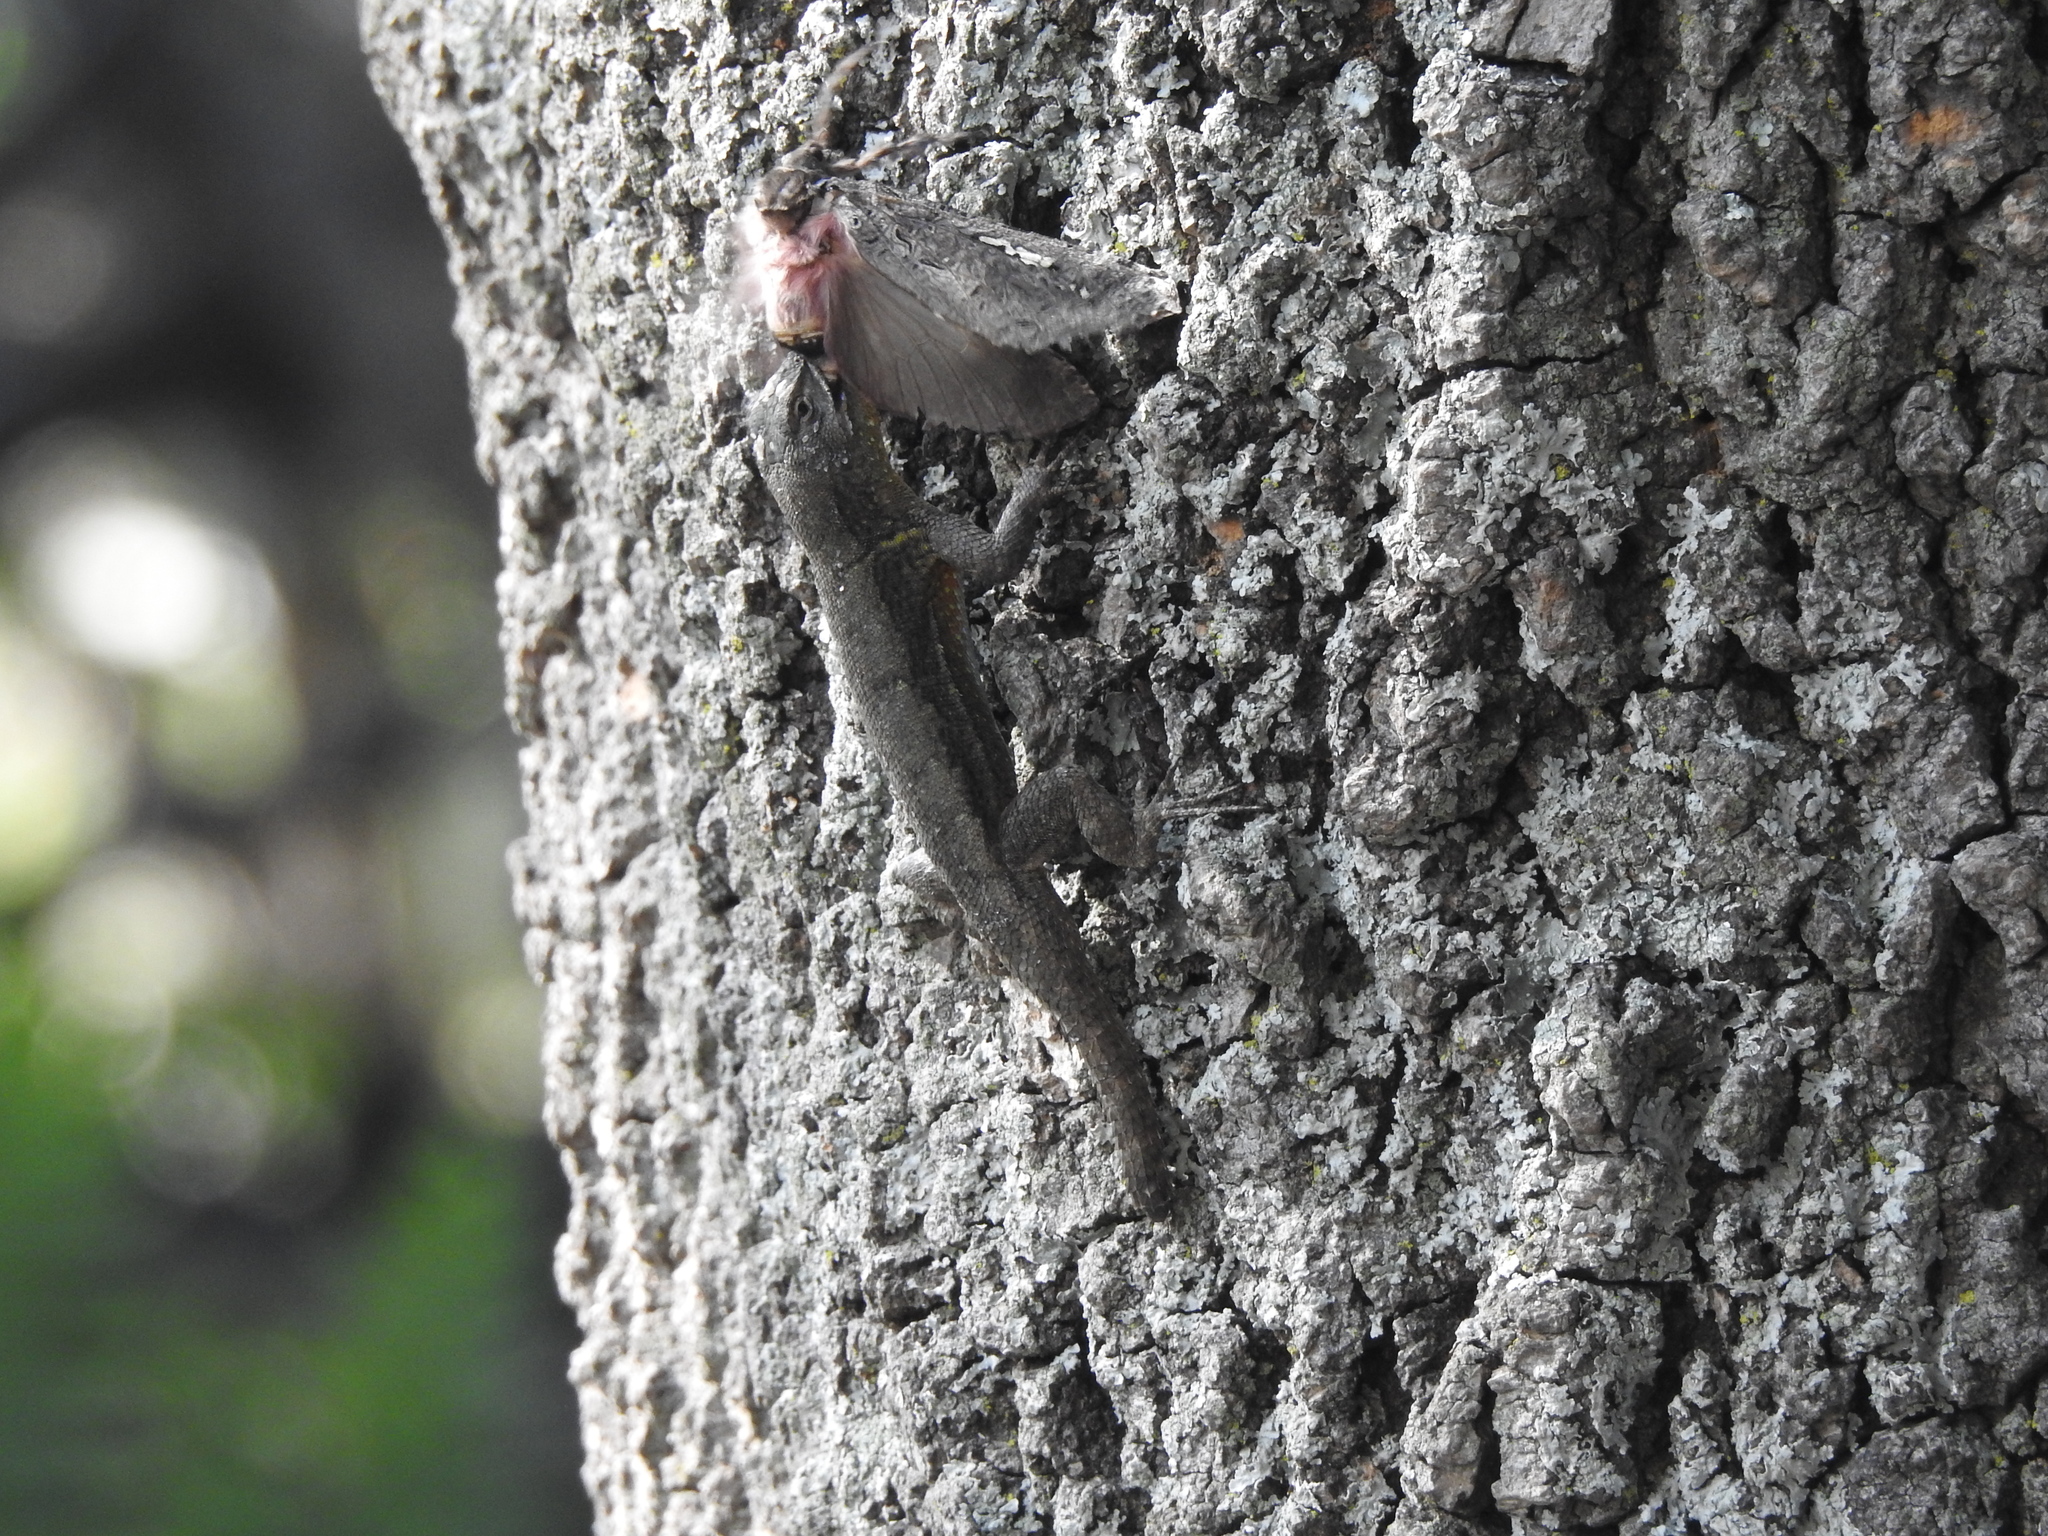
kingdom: Animalia
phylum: Chordata
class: Squamata
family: Phrynosomatidae
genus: Sceloporus
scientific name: Sceloporus grammicus
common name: Mesquite lizard
